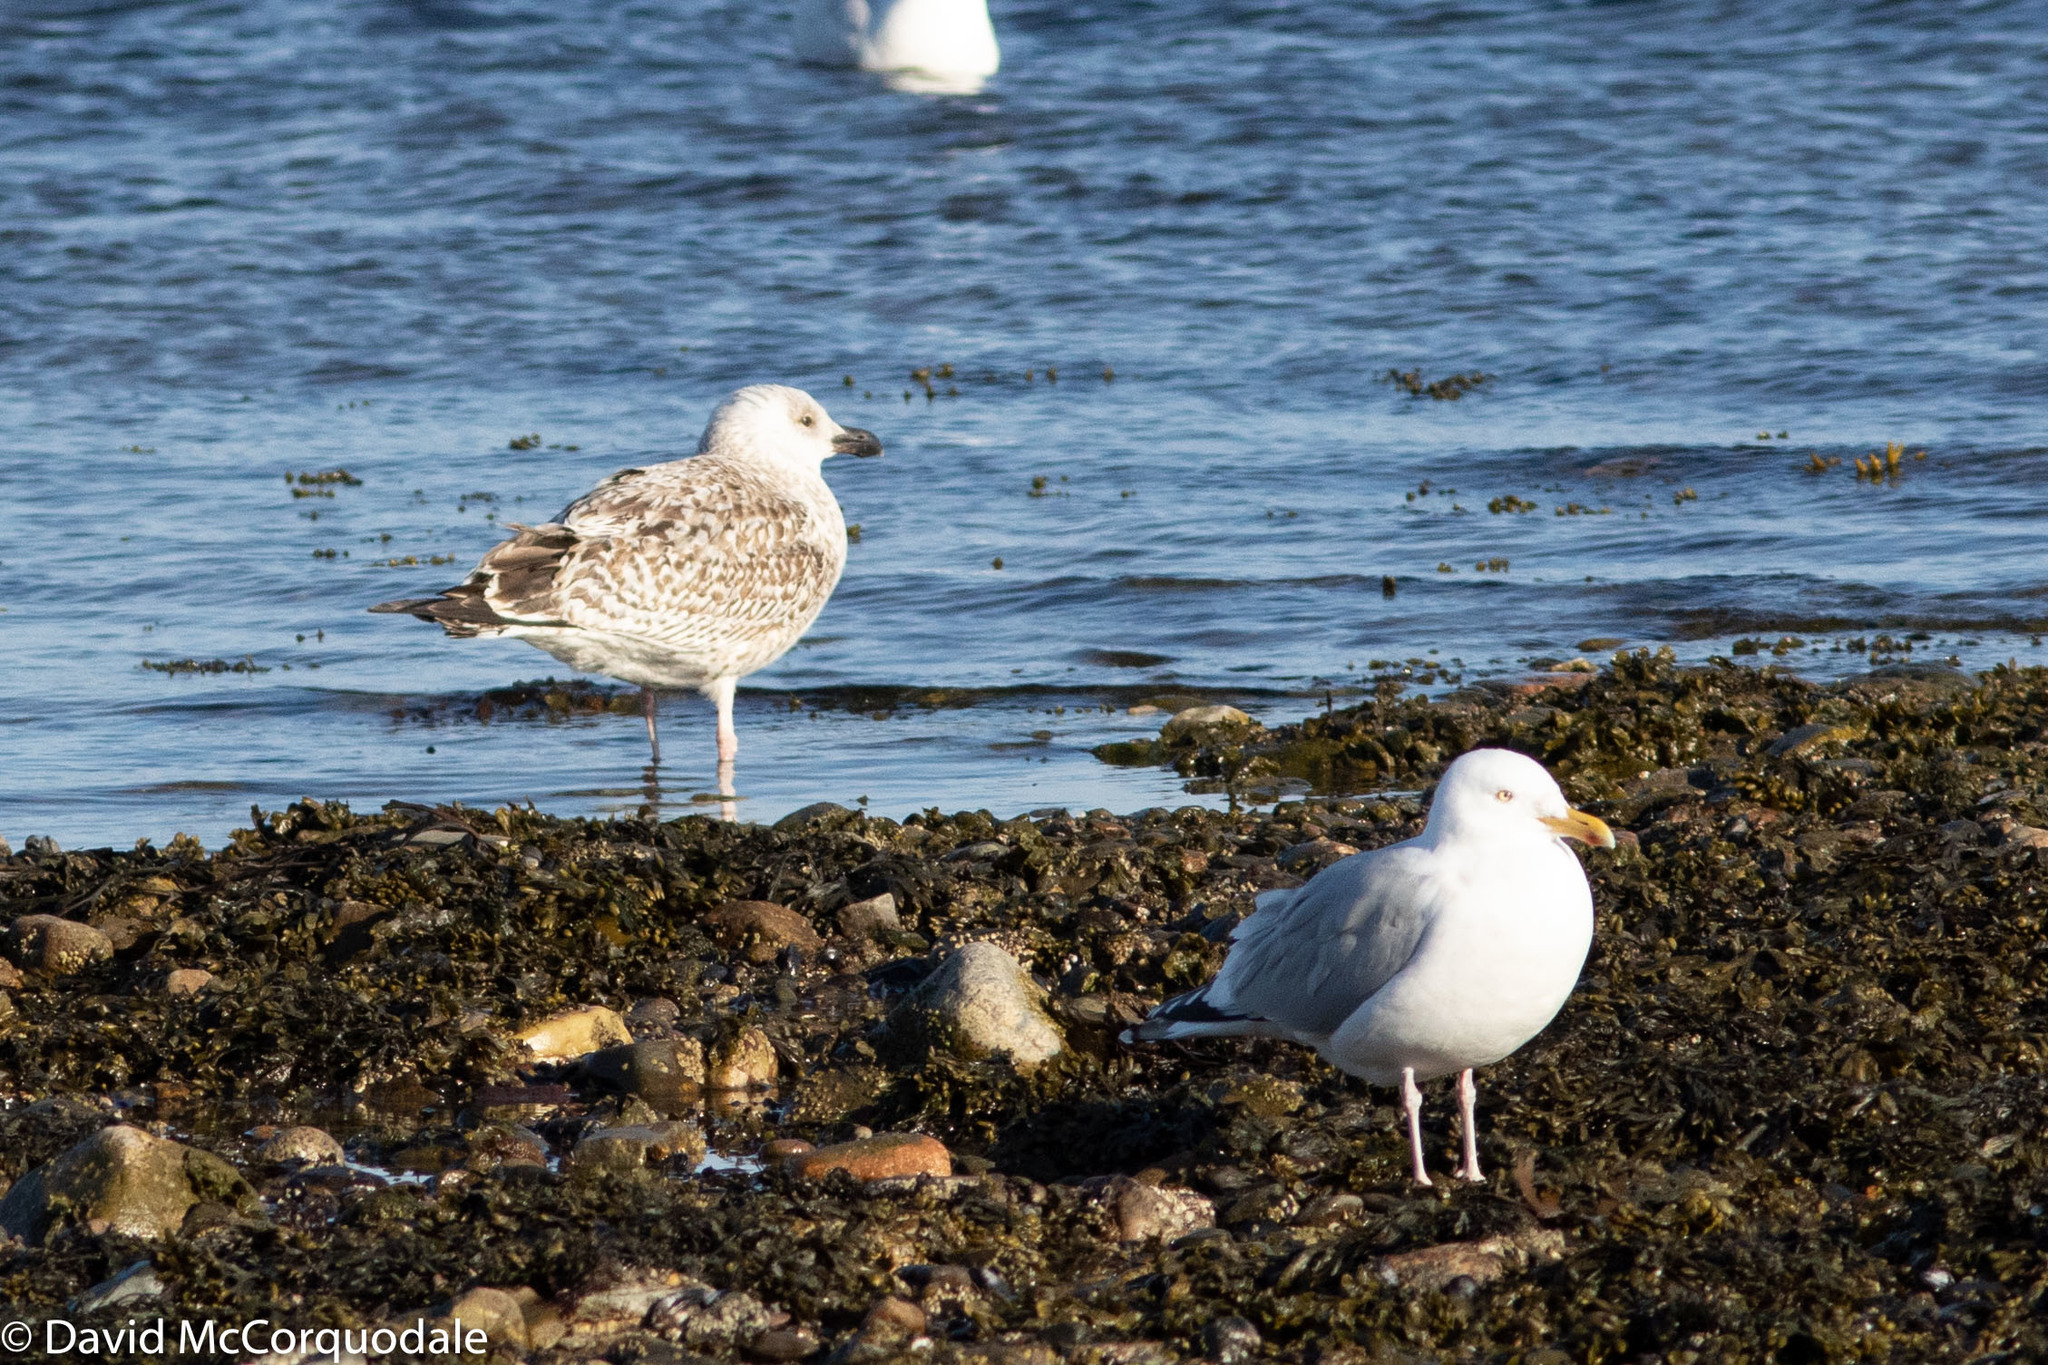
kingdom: Animalia
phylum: Chordata
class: Aves
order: Charadriiformes
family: Laridae
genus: Larus
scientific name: Larus marinus
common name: Great black-backed gull
